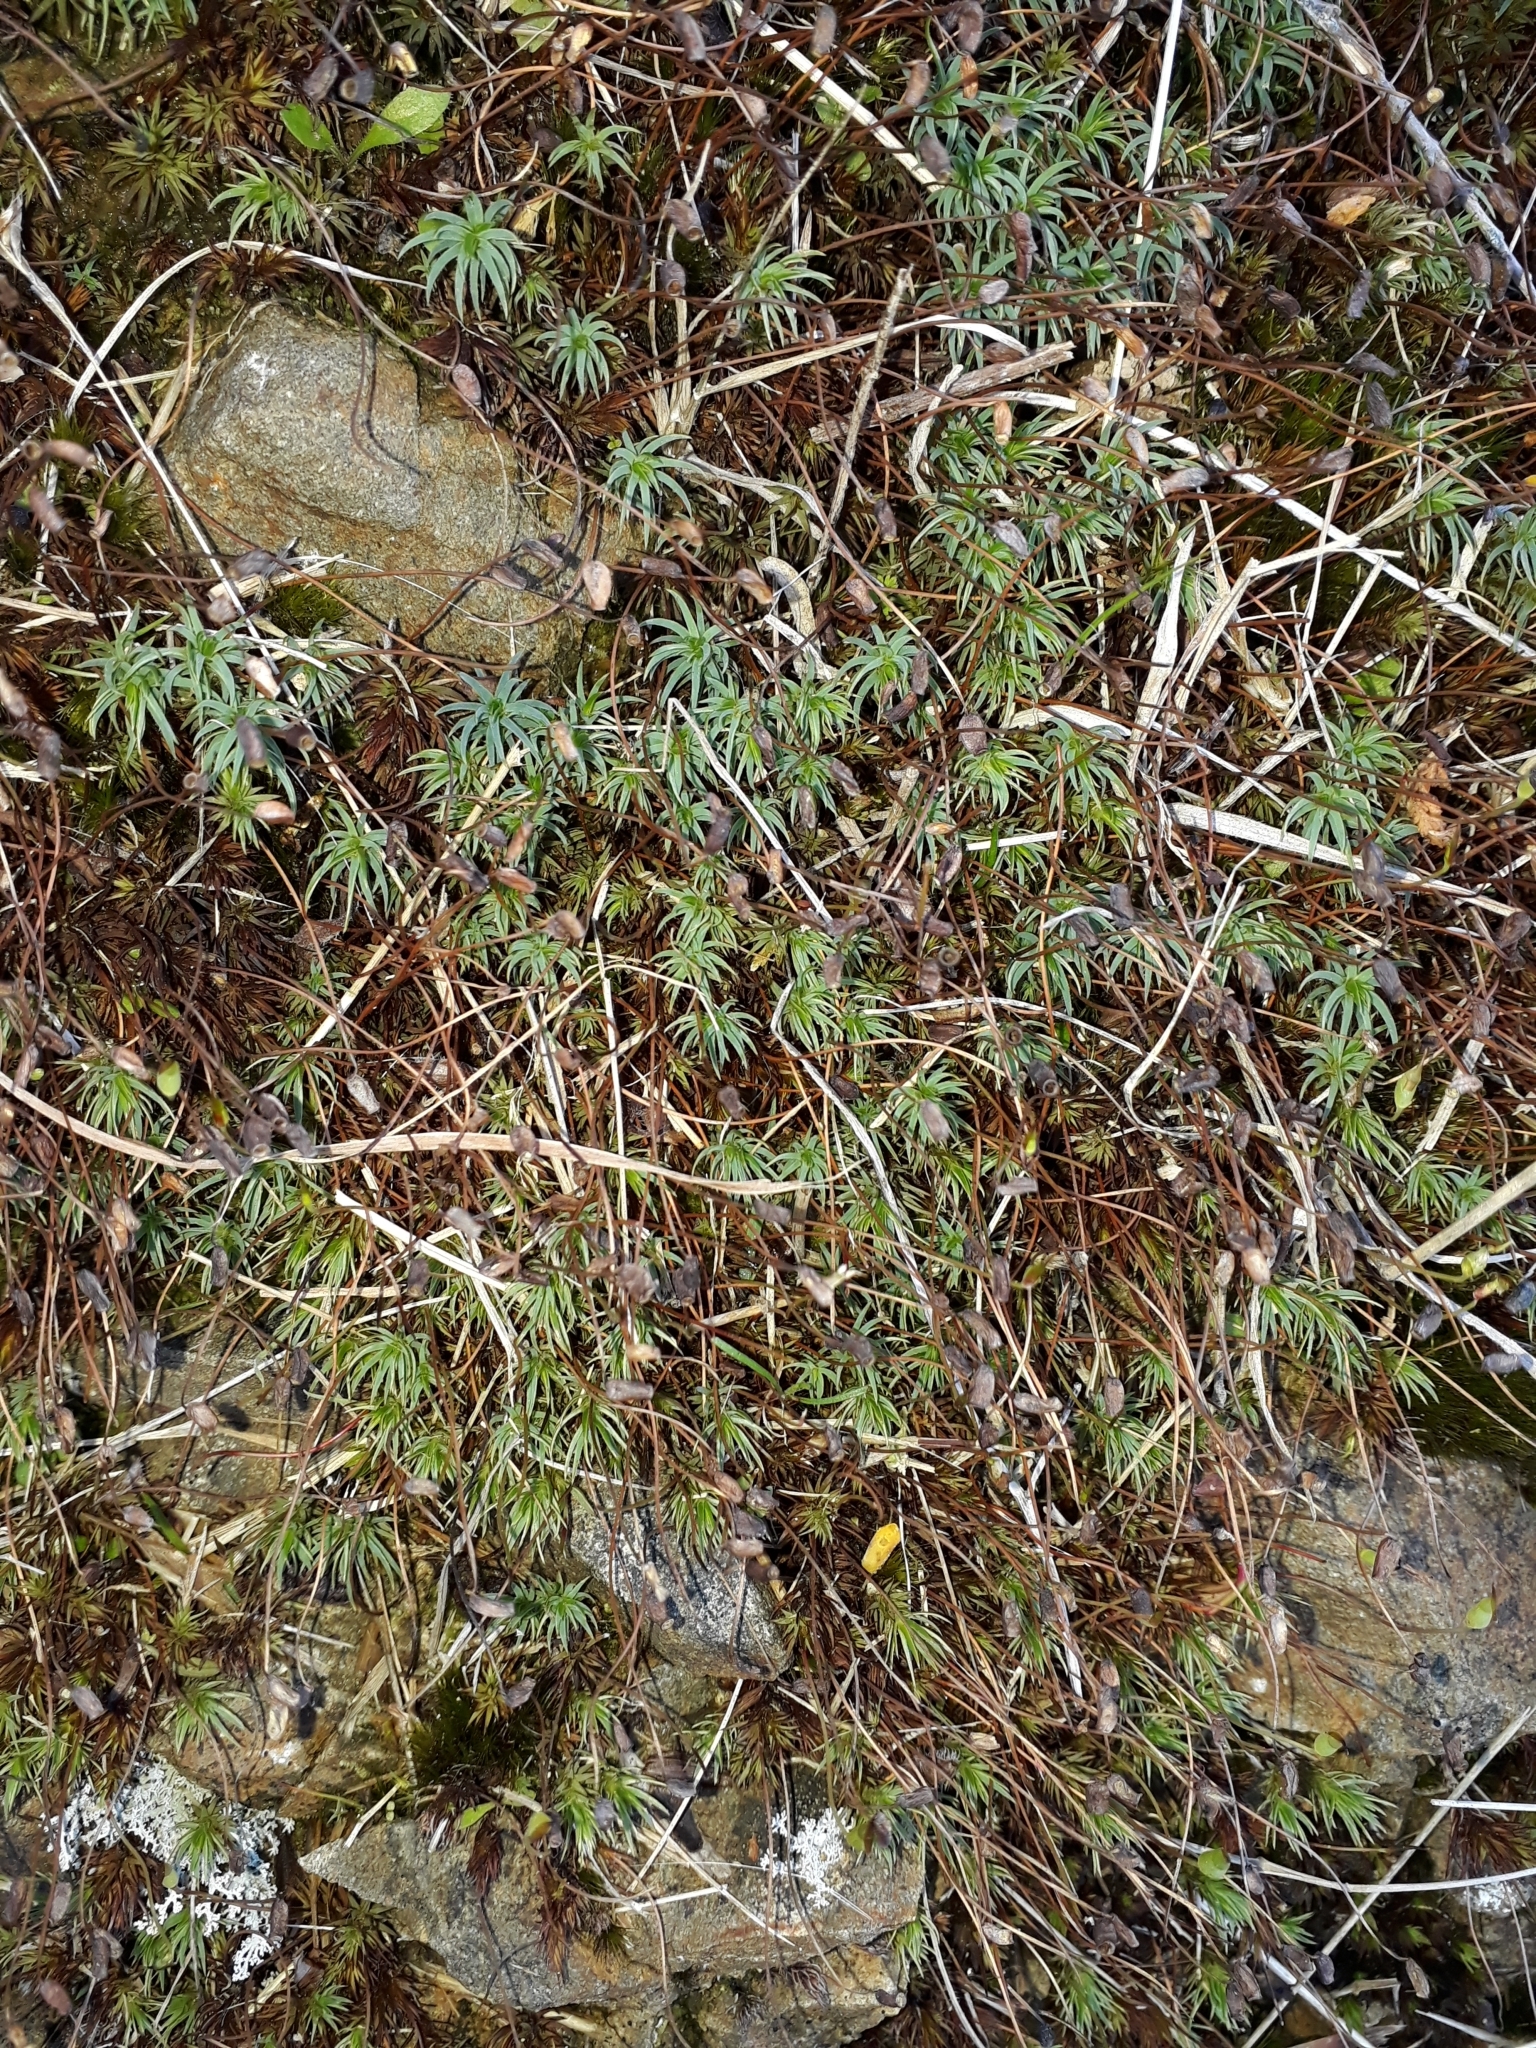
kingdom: Plantae
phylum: Bryophyta
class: Polytrichopsida
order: Polytrichales
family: Polytrichaceae
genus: Polytrichadelphus
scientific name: Polytrichadelphus magellanicus
